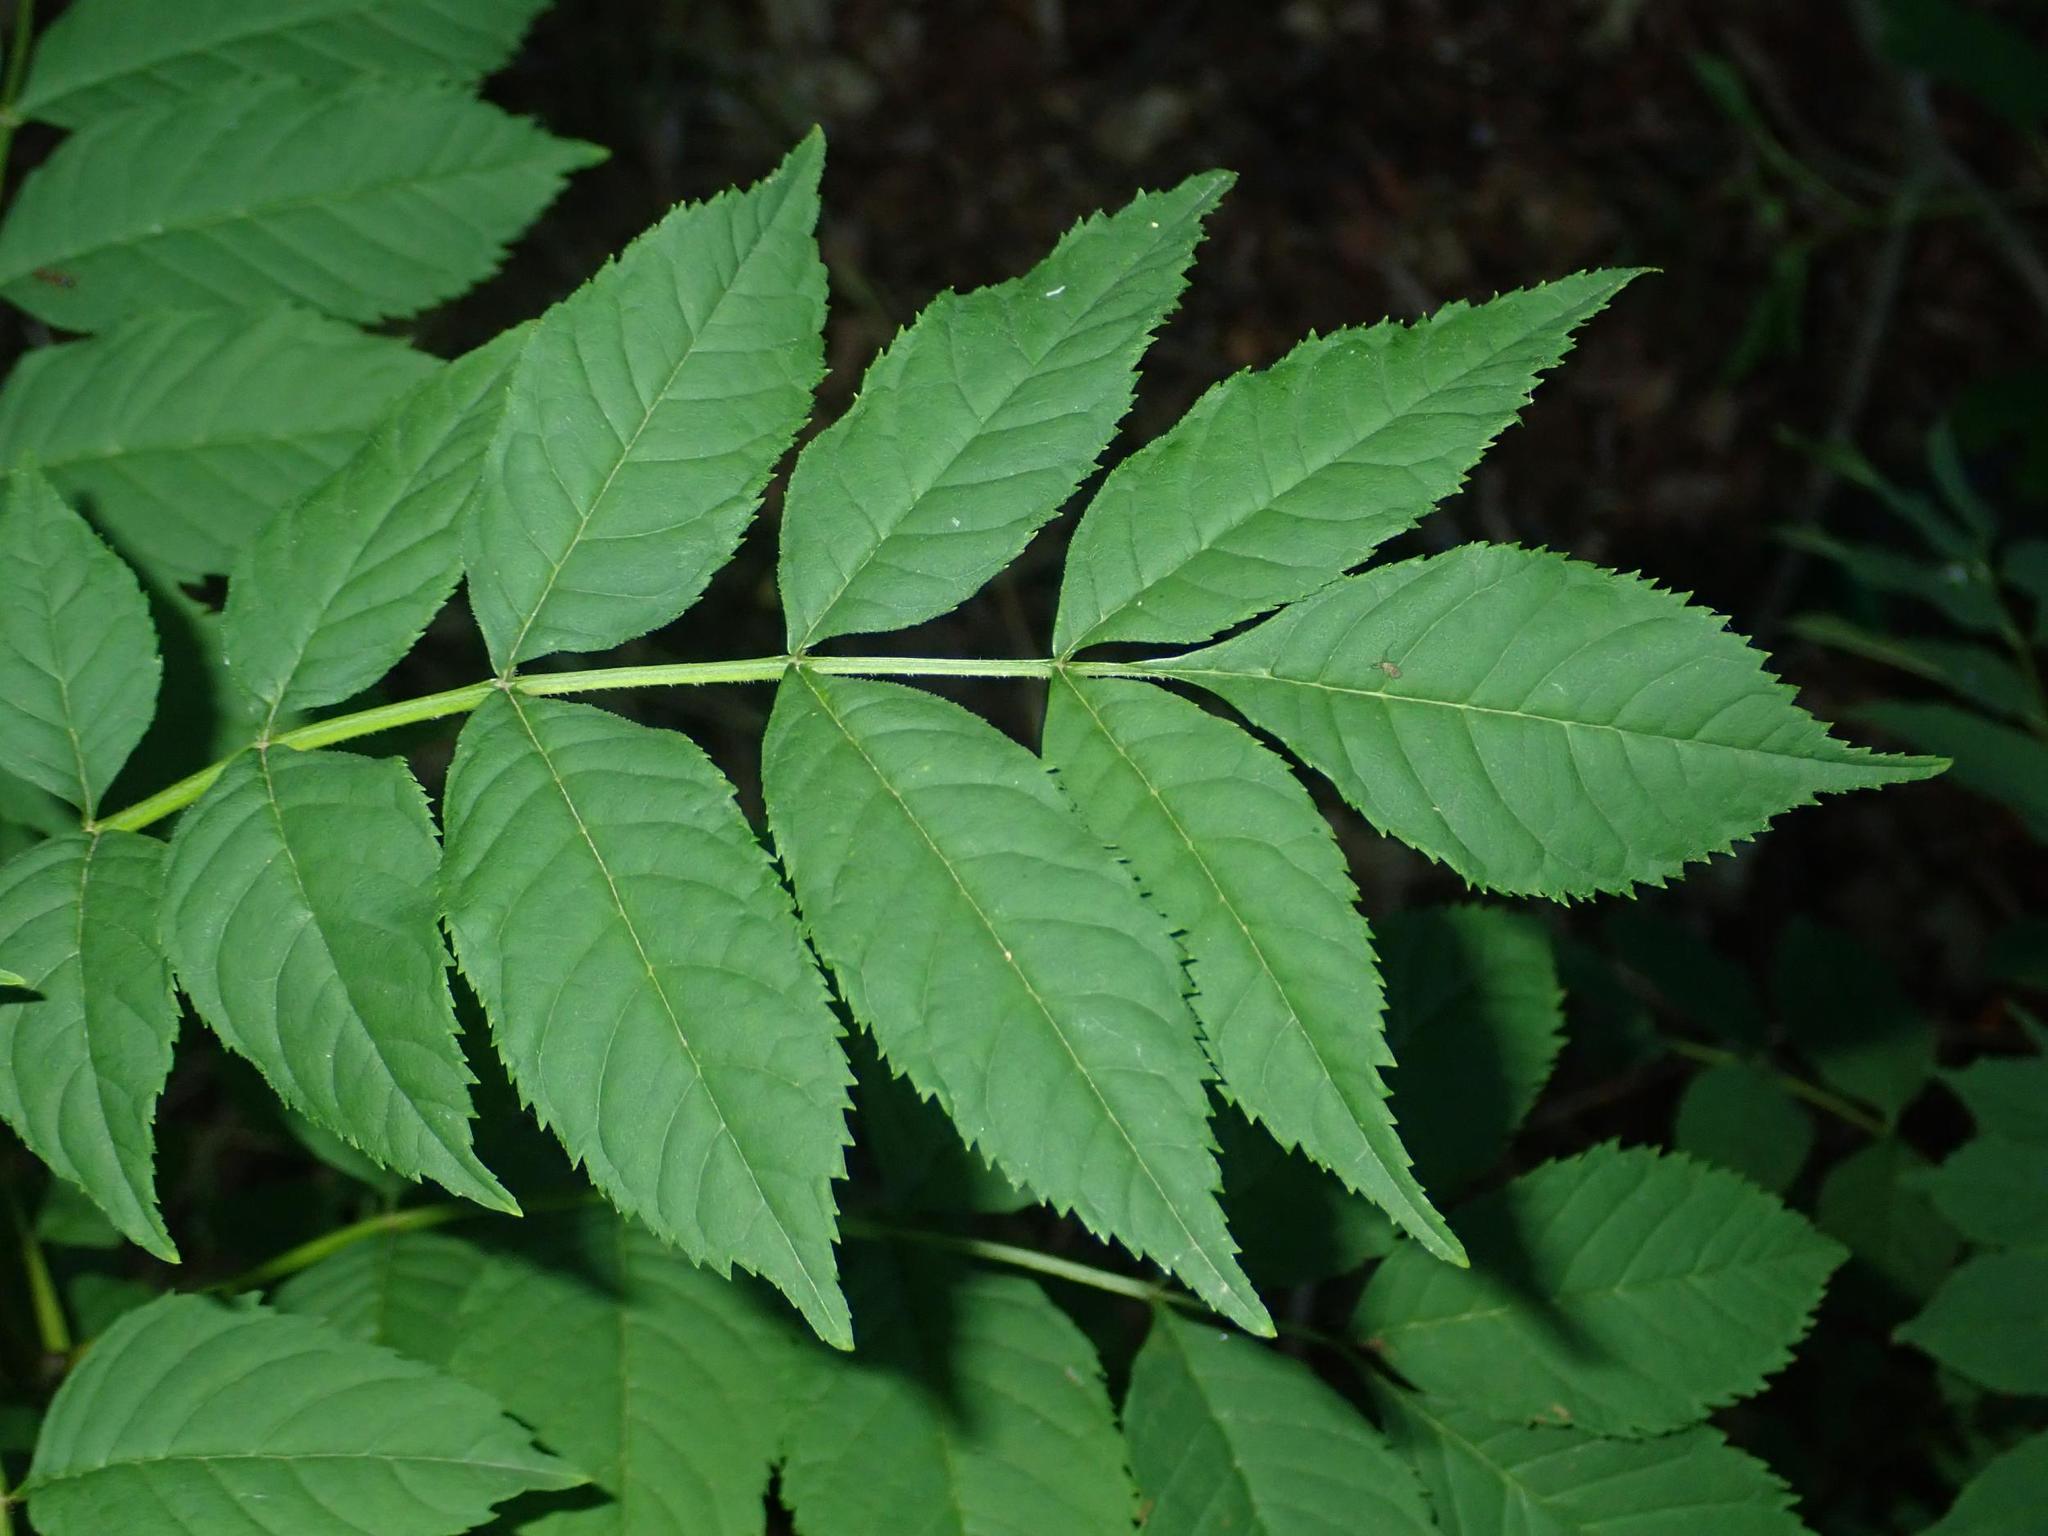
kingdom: Plantae
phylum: Tracheophyta
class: Magnoliopsida
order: Lamiales
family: Oleaceae
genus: Fraxinus
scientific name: Fraxinus excelsior
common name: European ash
